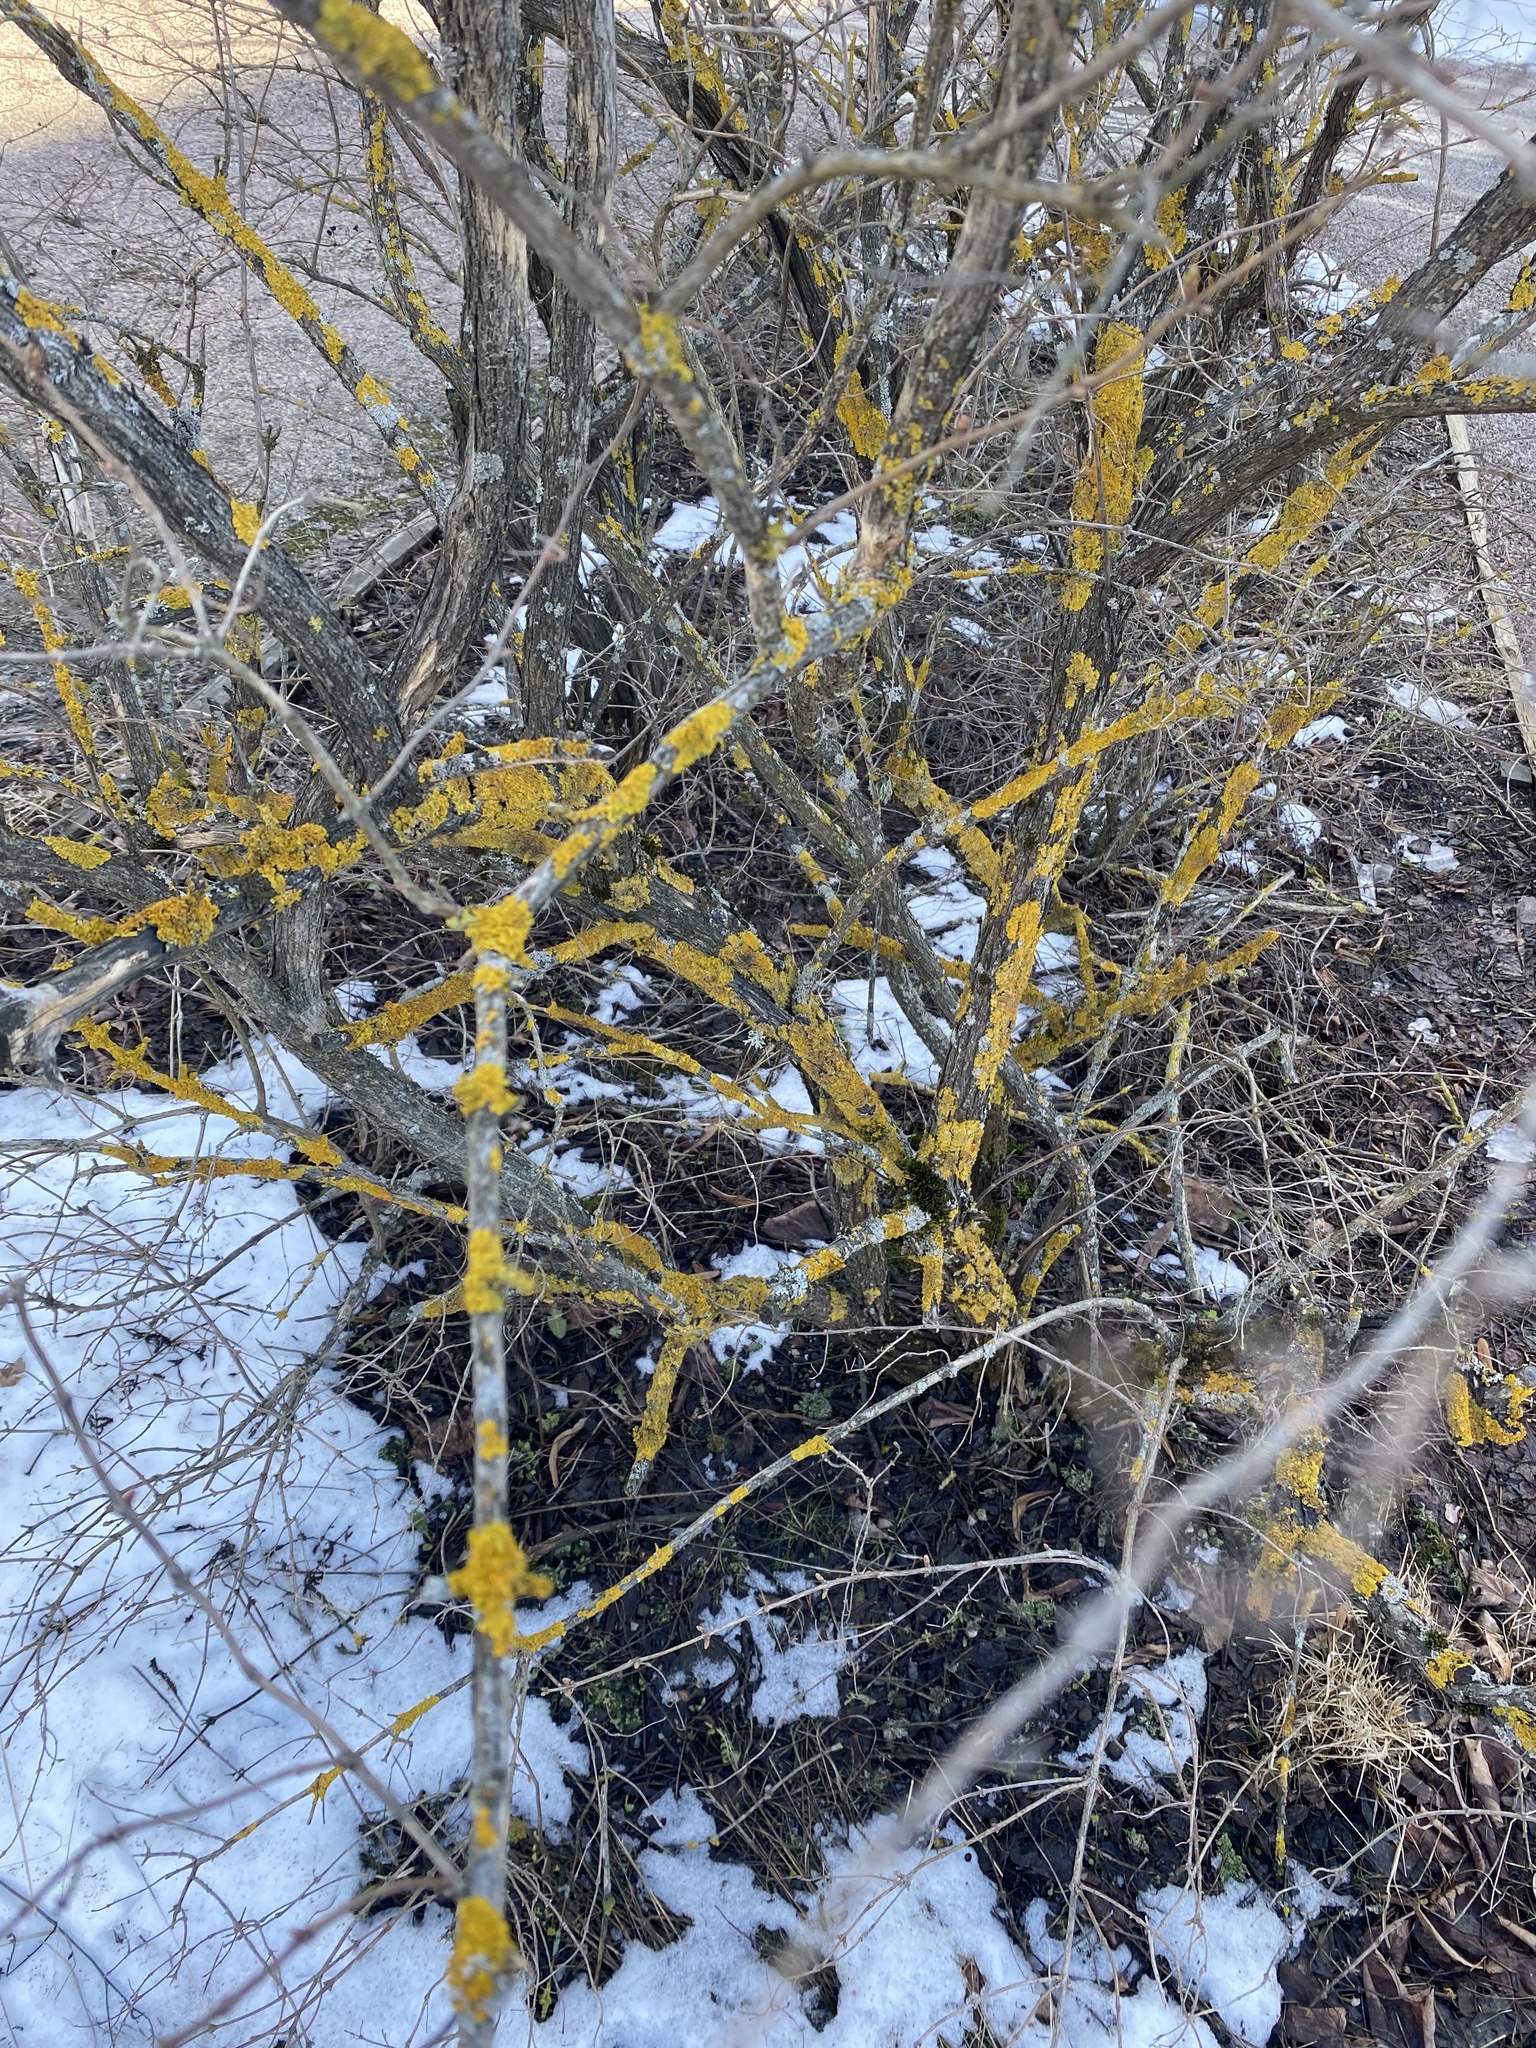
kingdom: Fungi
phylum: Ascomycota
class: Lecanoromycetes
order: Teloschistales
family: Teloschistaceae
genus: Xanthoria
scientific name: Xanthoria parietina
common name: Common orange lichen
